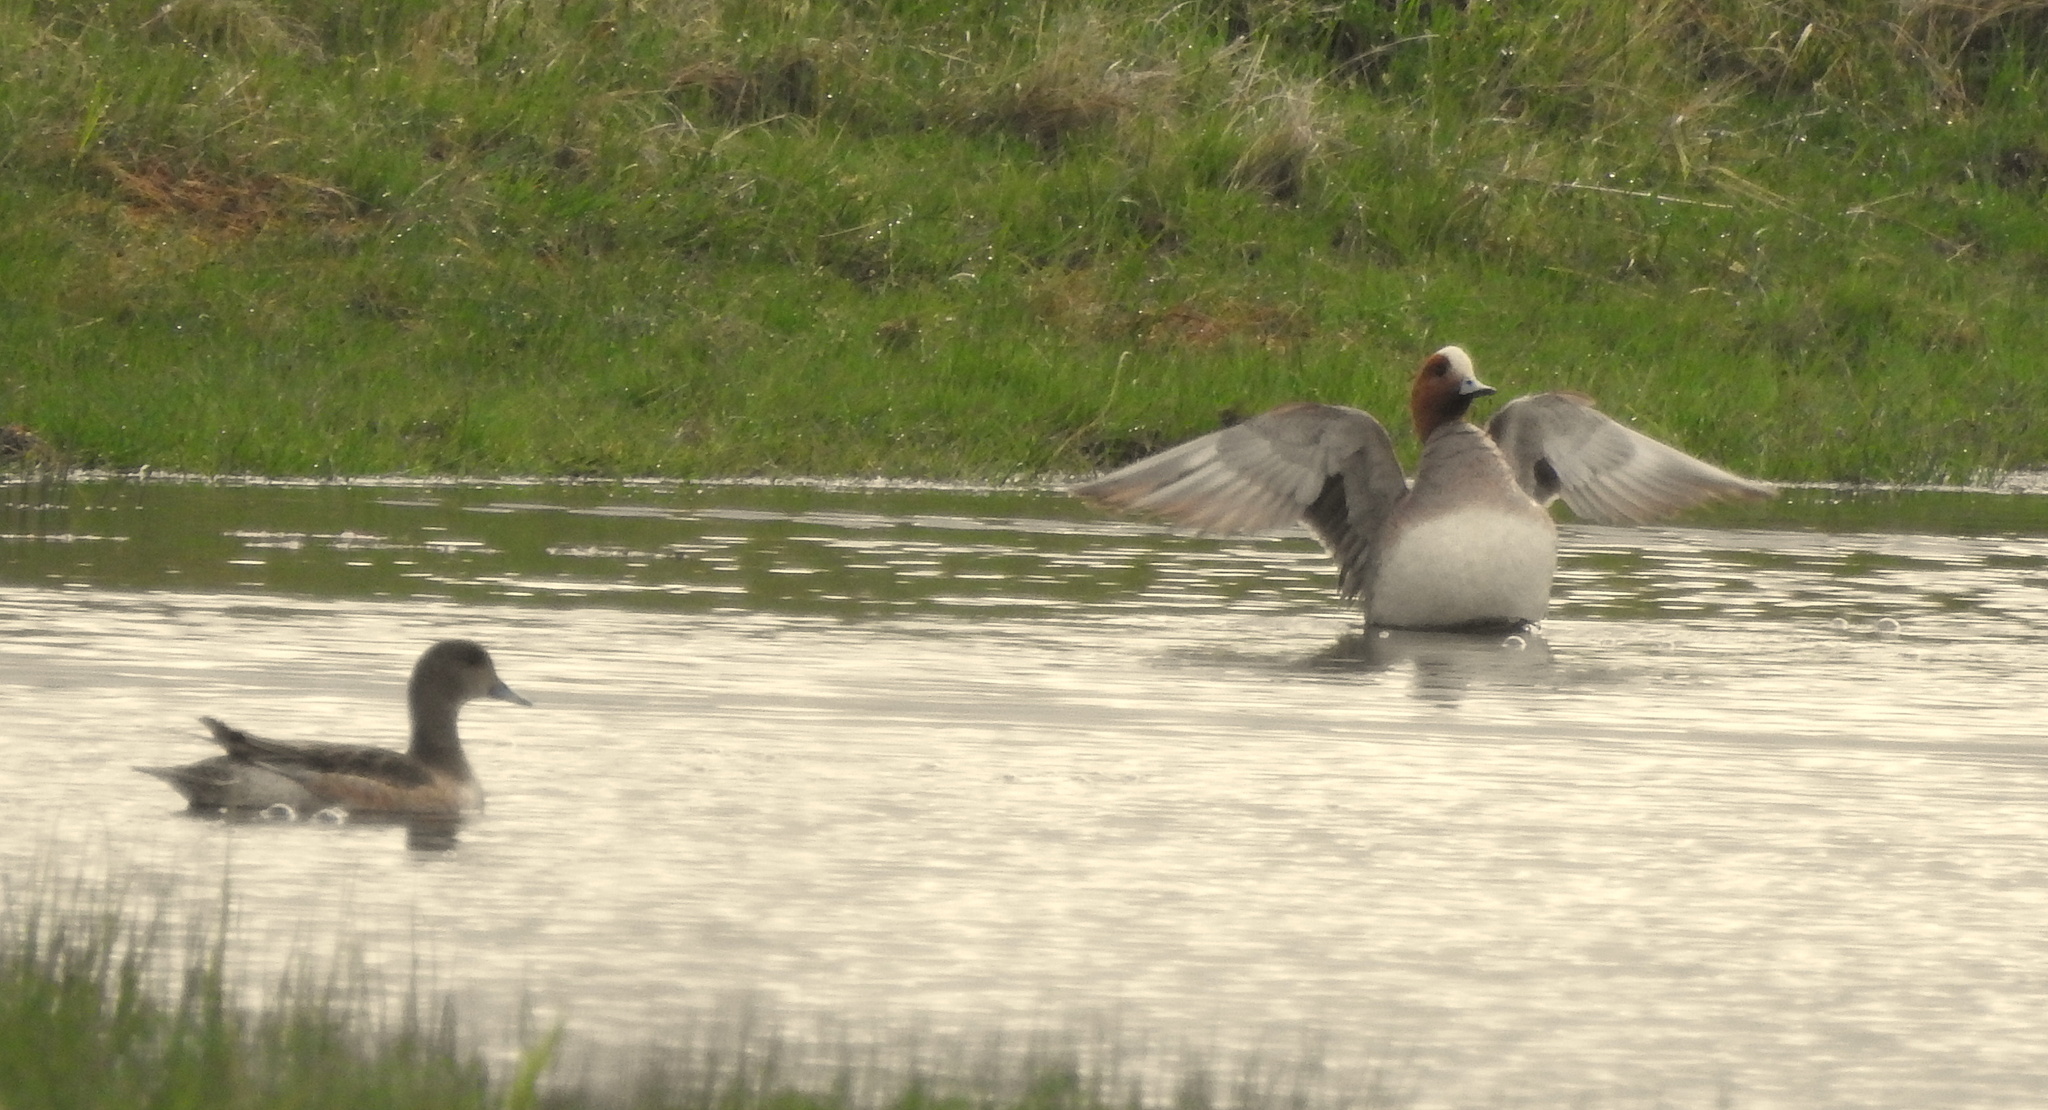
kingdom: Animalia
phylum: Chordata
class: Aves
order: Anseriformes
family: Anatidae
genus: Mareca
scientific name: Mareca penelope
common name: Eurasian wigeon
